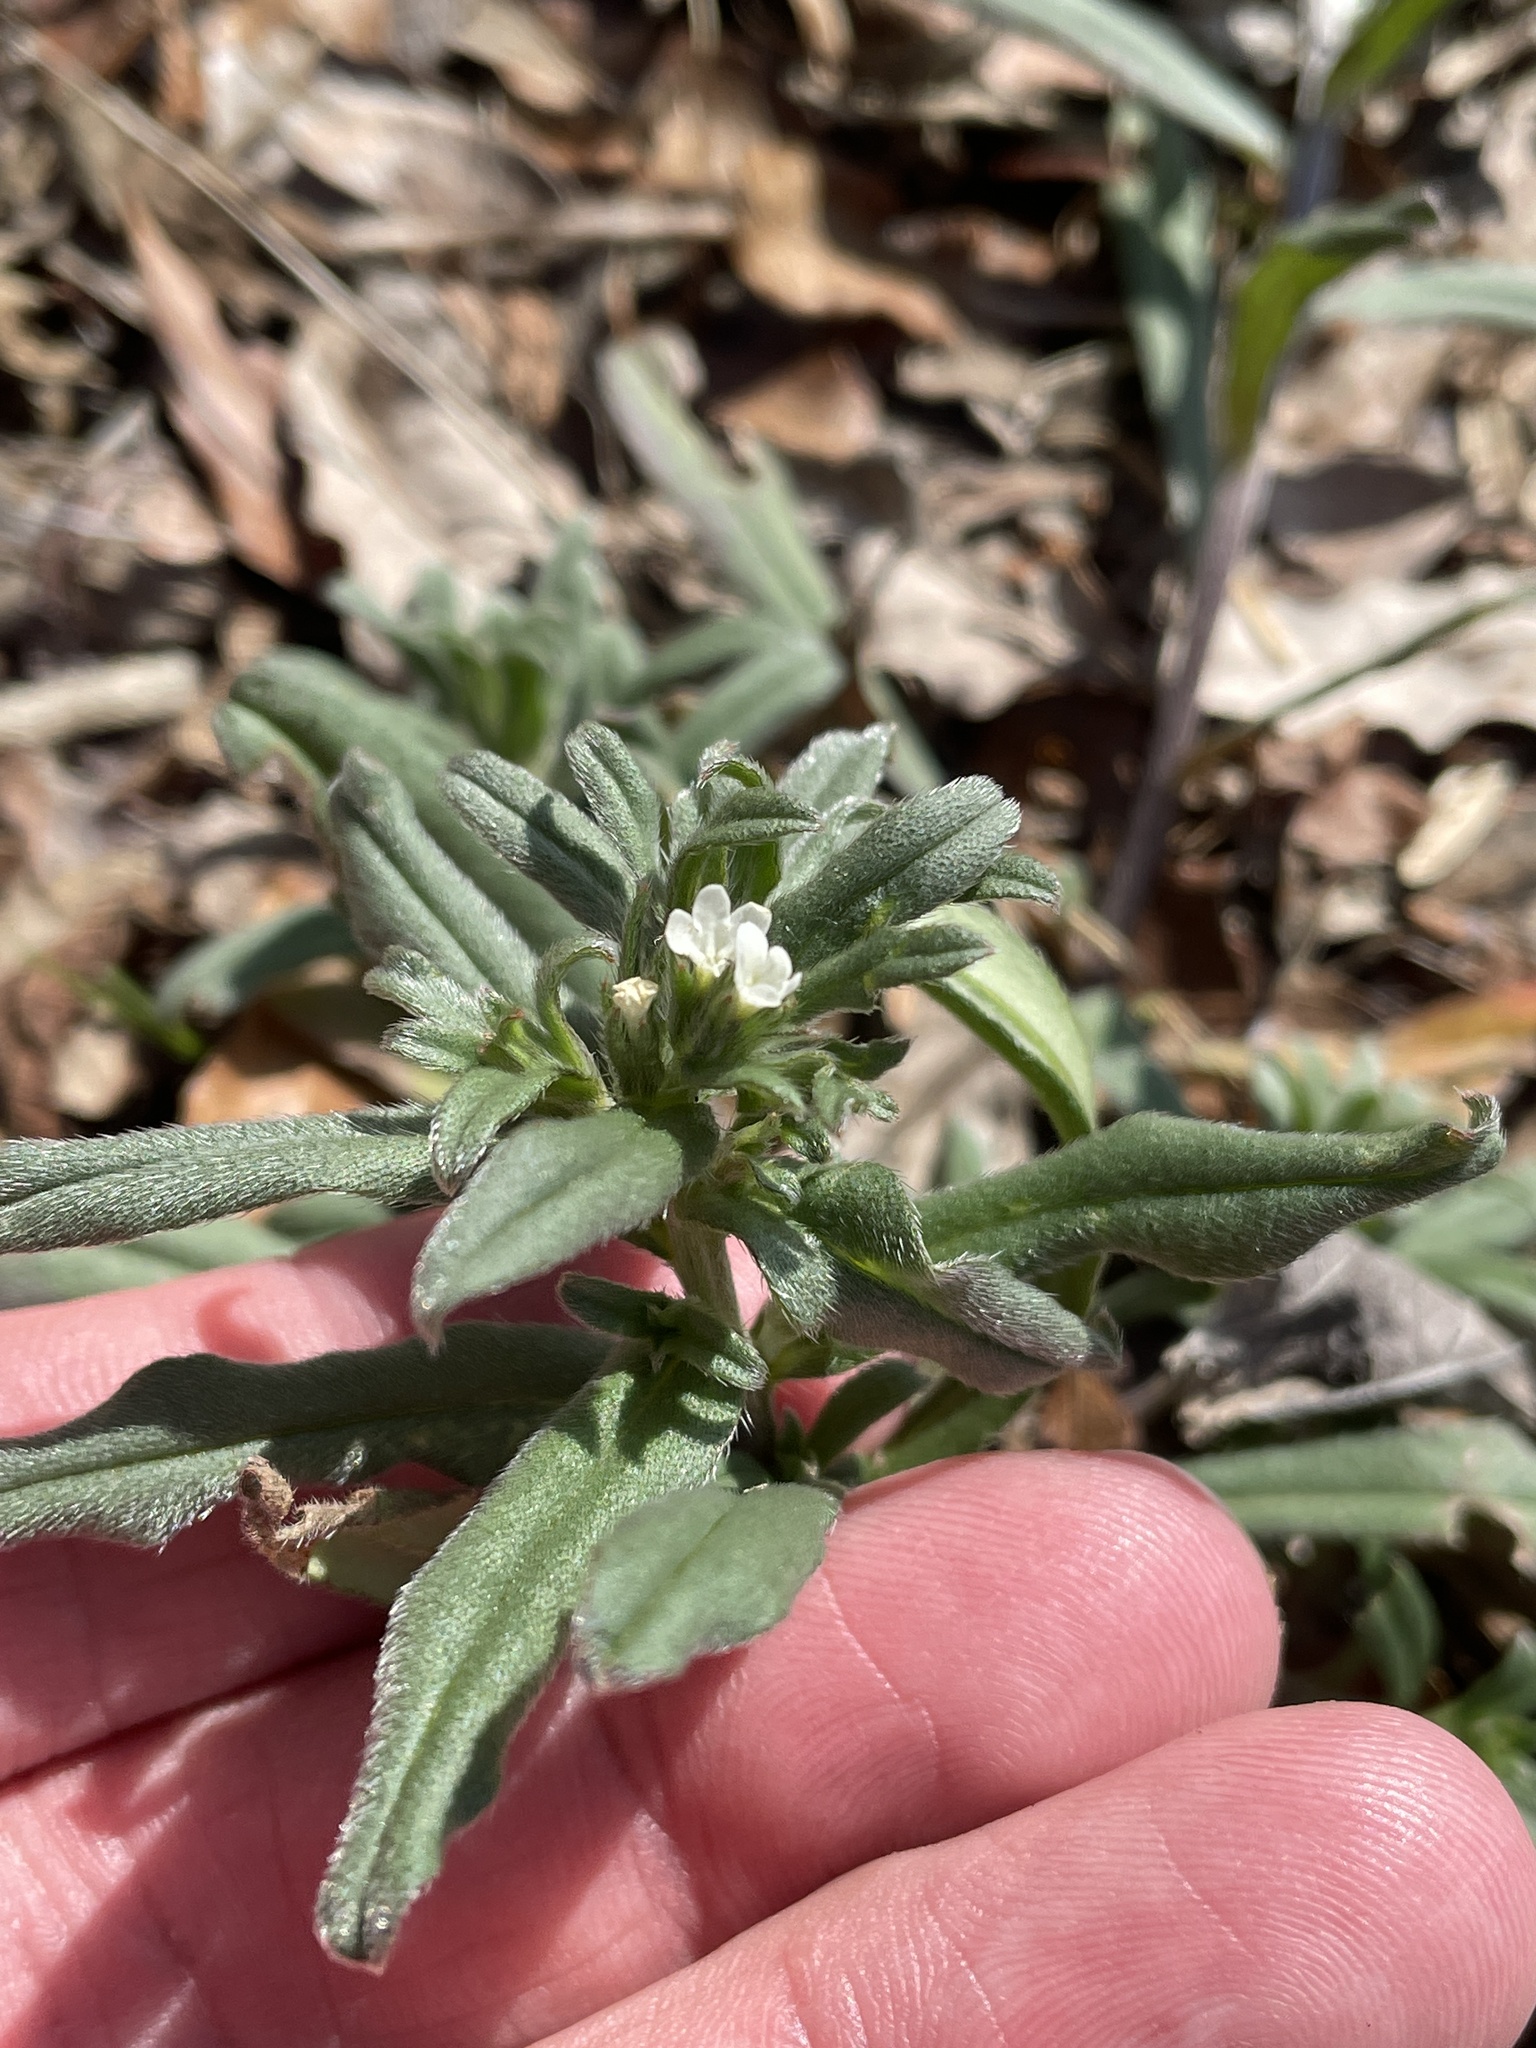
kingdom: Plantae
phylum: Tracheophyta
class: Magnoliopsida
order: Boraginales
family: Boraginaceae
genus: Buglossoides
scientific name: Buglossoides arvensis
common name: Corn gromwell
